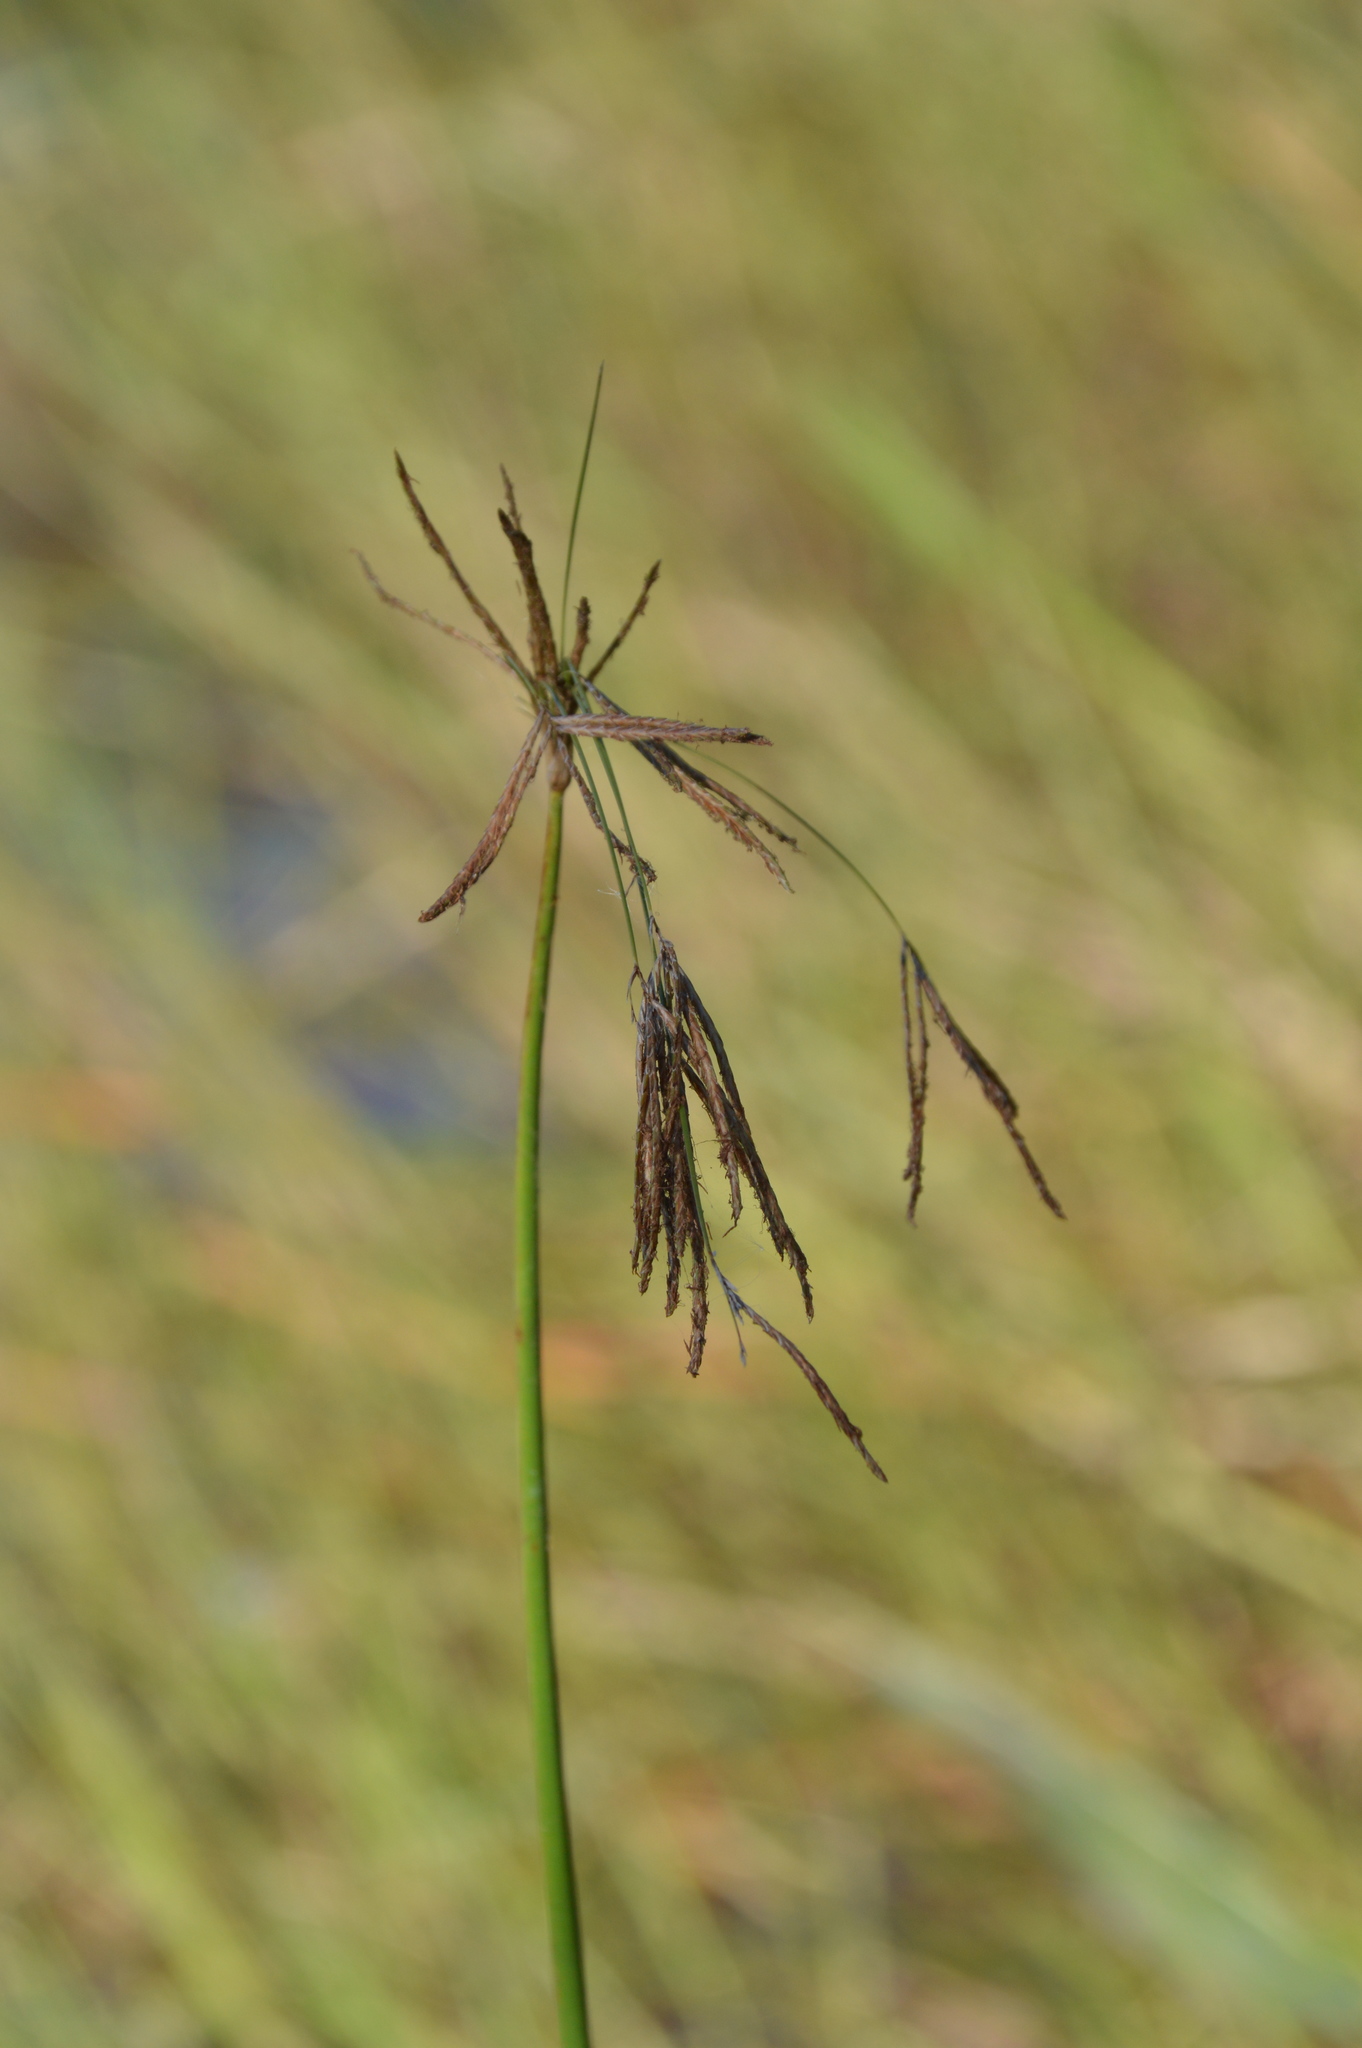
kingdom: Plantae
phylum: Tracheophyta
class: Liliopsida
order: Poales
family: Cyperaceae
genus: Cyperus
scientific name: Cyperus articulatus
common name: Jointed flatsedge
